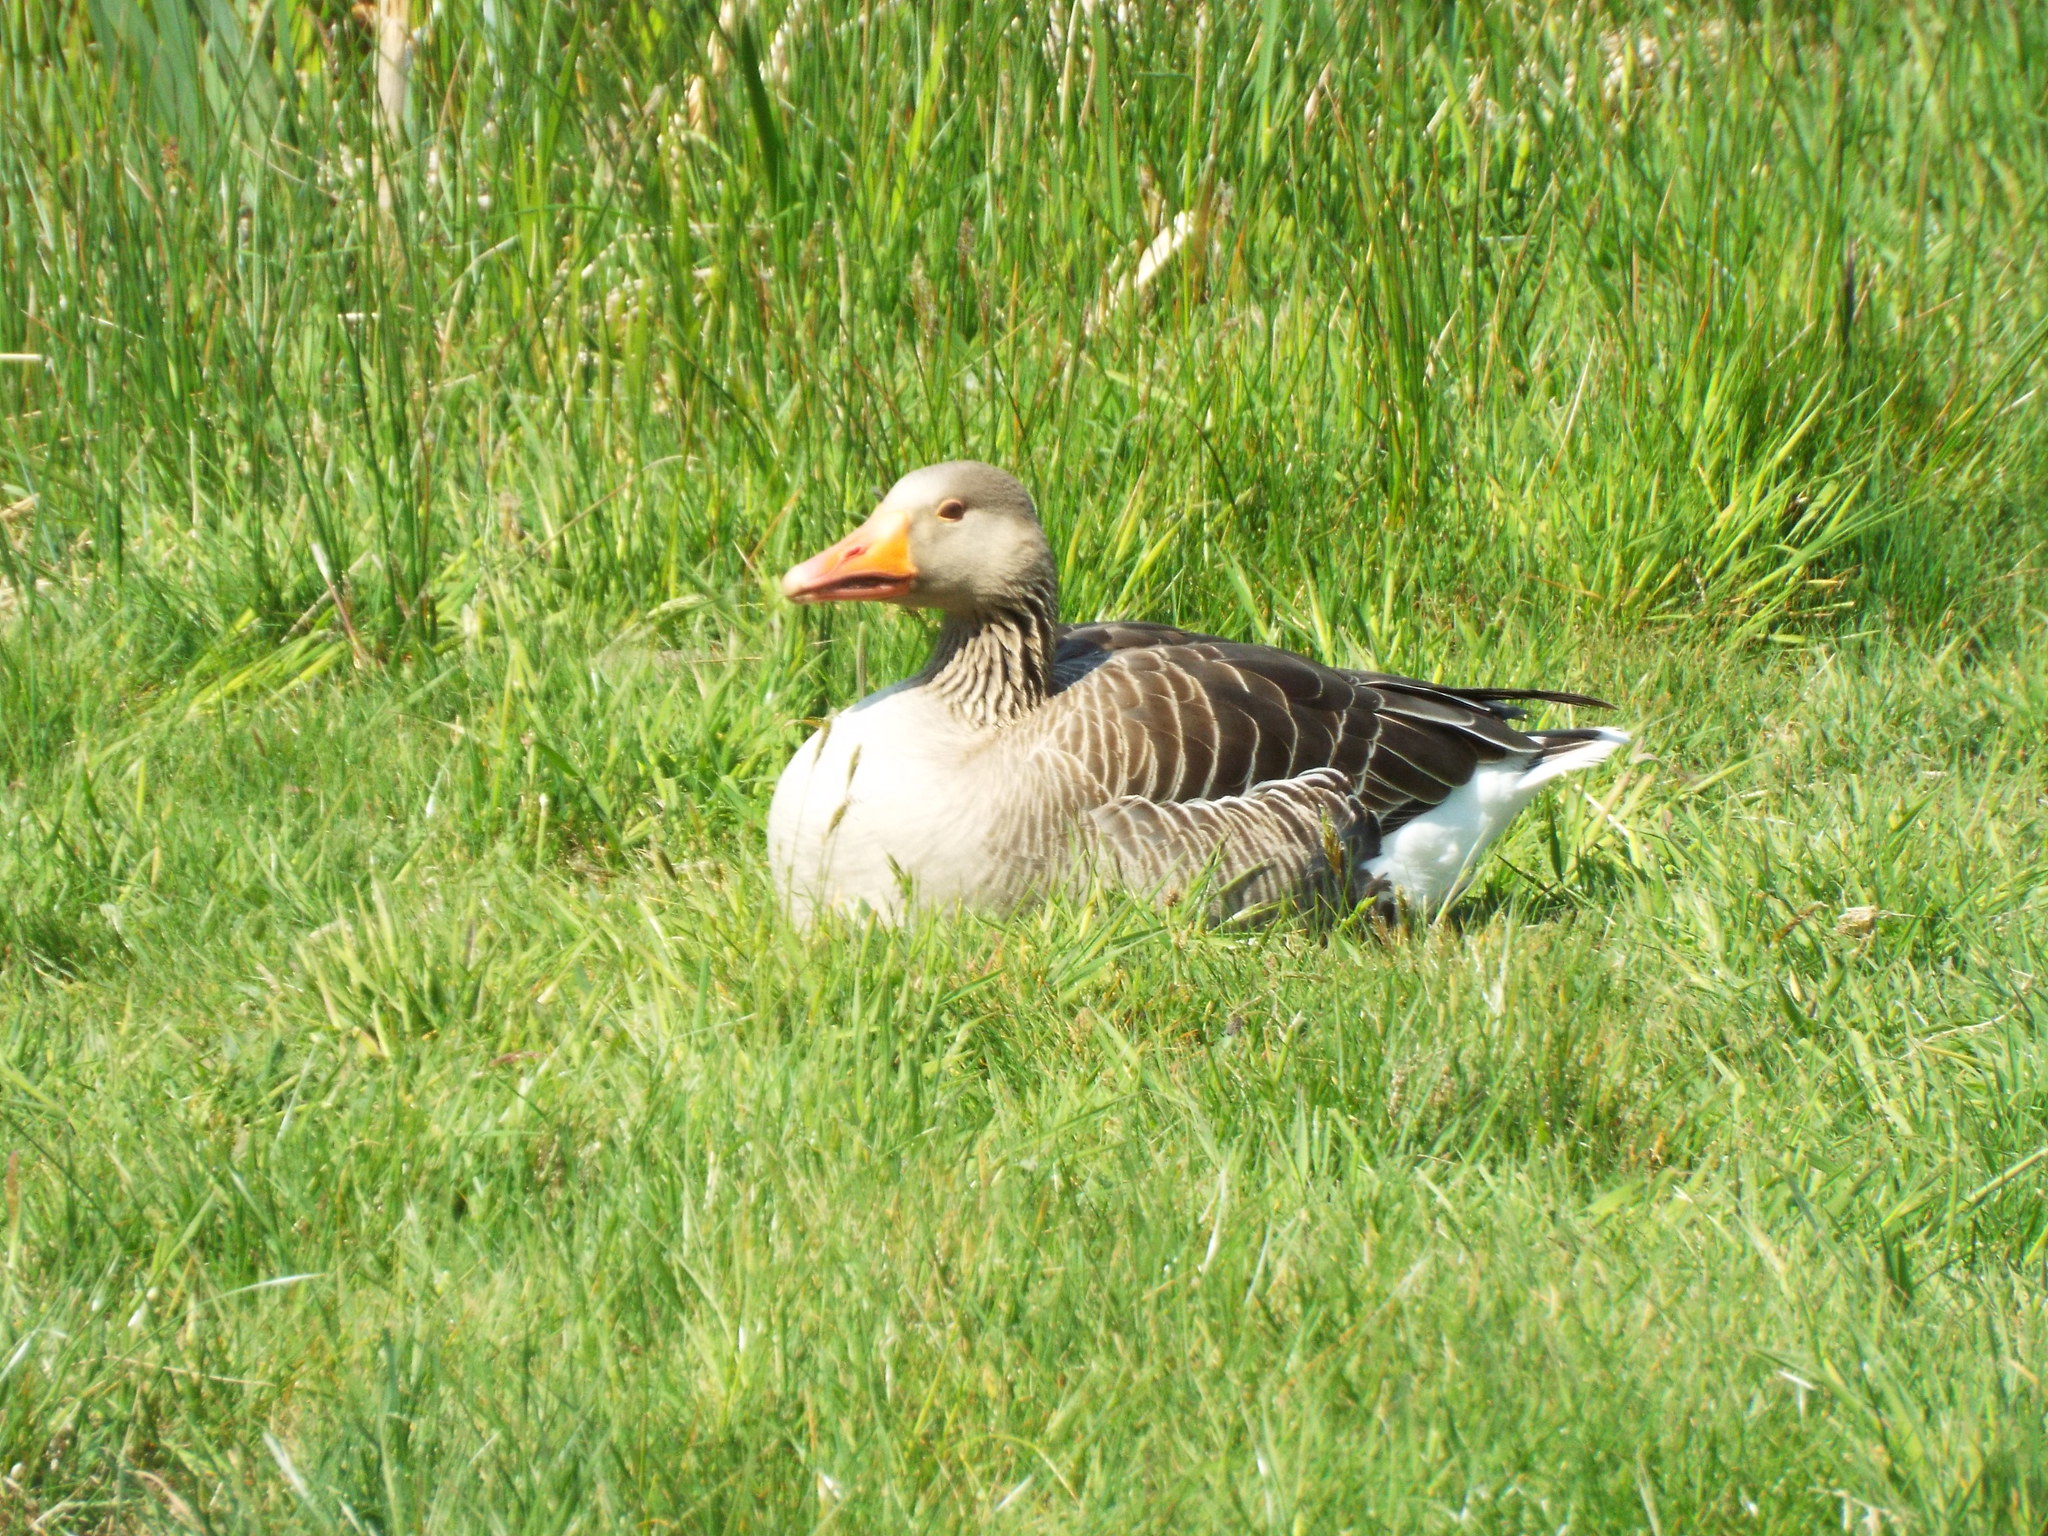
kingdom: Animalia
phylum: Chordata
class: Aves
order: Anseriformes
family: Anatidae
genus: Anser
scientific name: Anser anser
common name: Greylag goose
